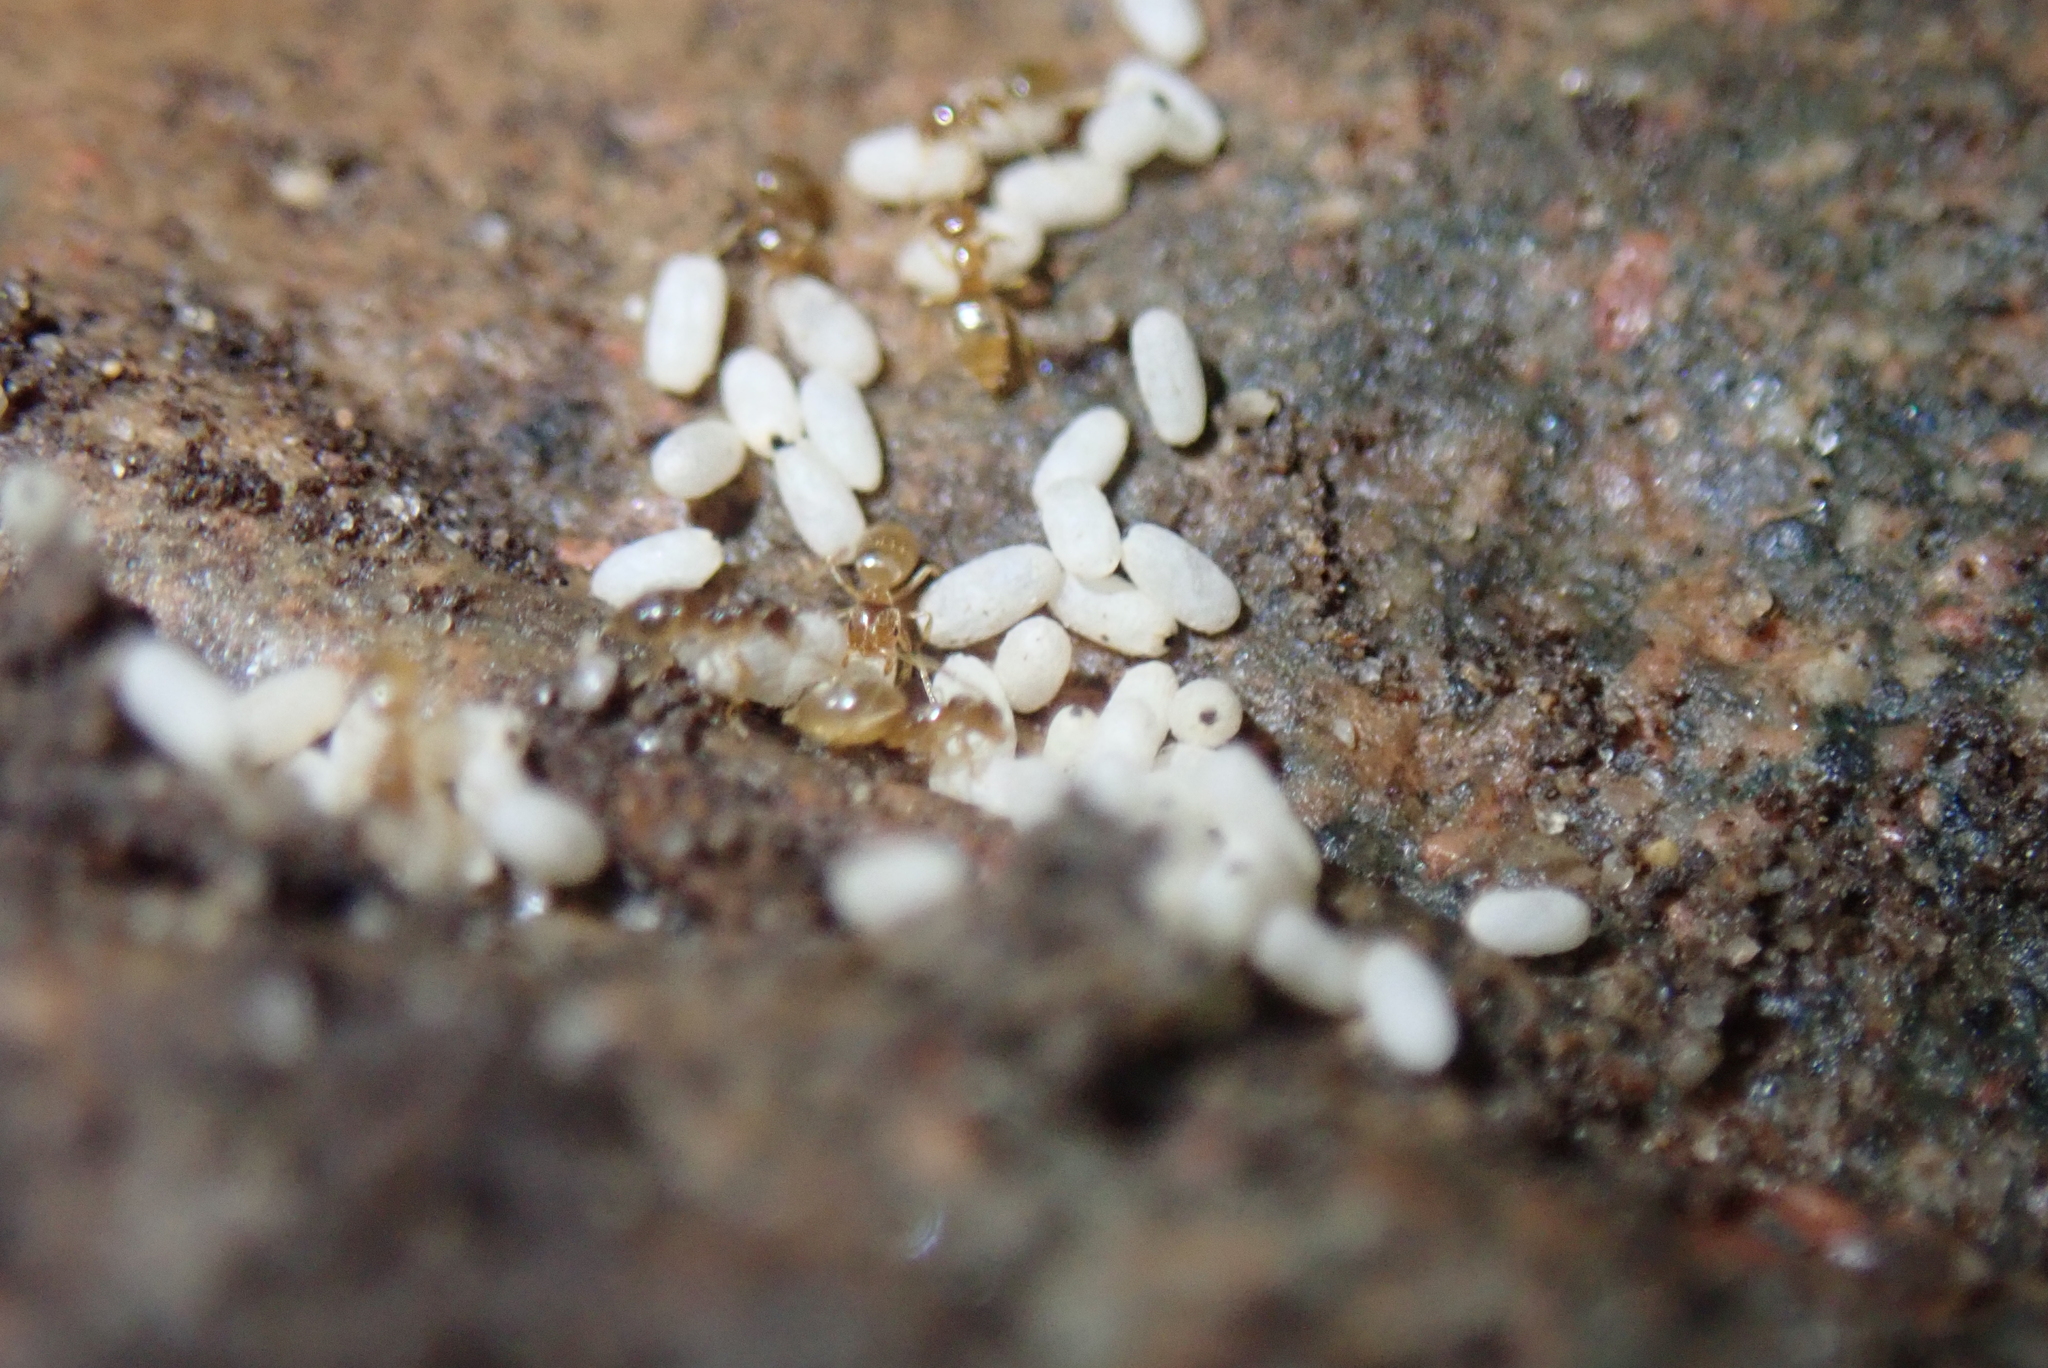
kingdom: Animalia
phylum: Arthropoda
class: Insecta
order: Hymenoptera
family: Formicidae
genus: Brachymyrmex
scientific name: Brachymyrmex depilis
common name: Hairless rover ant
